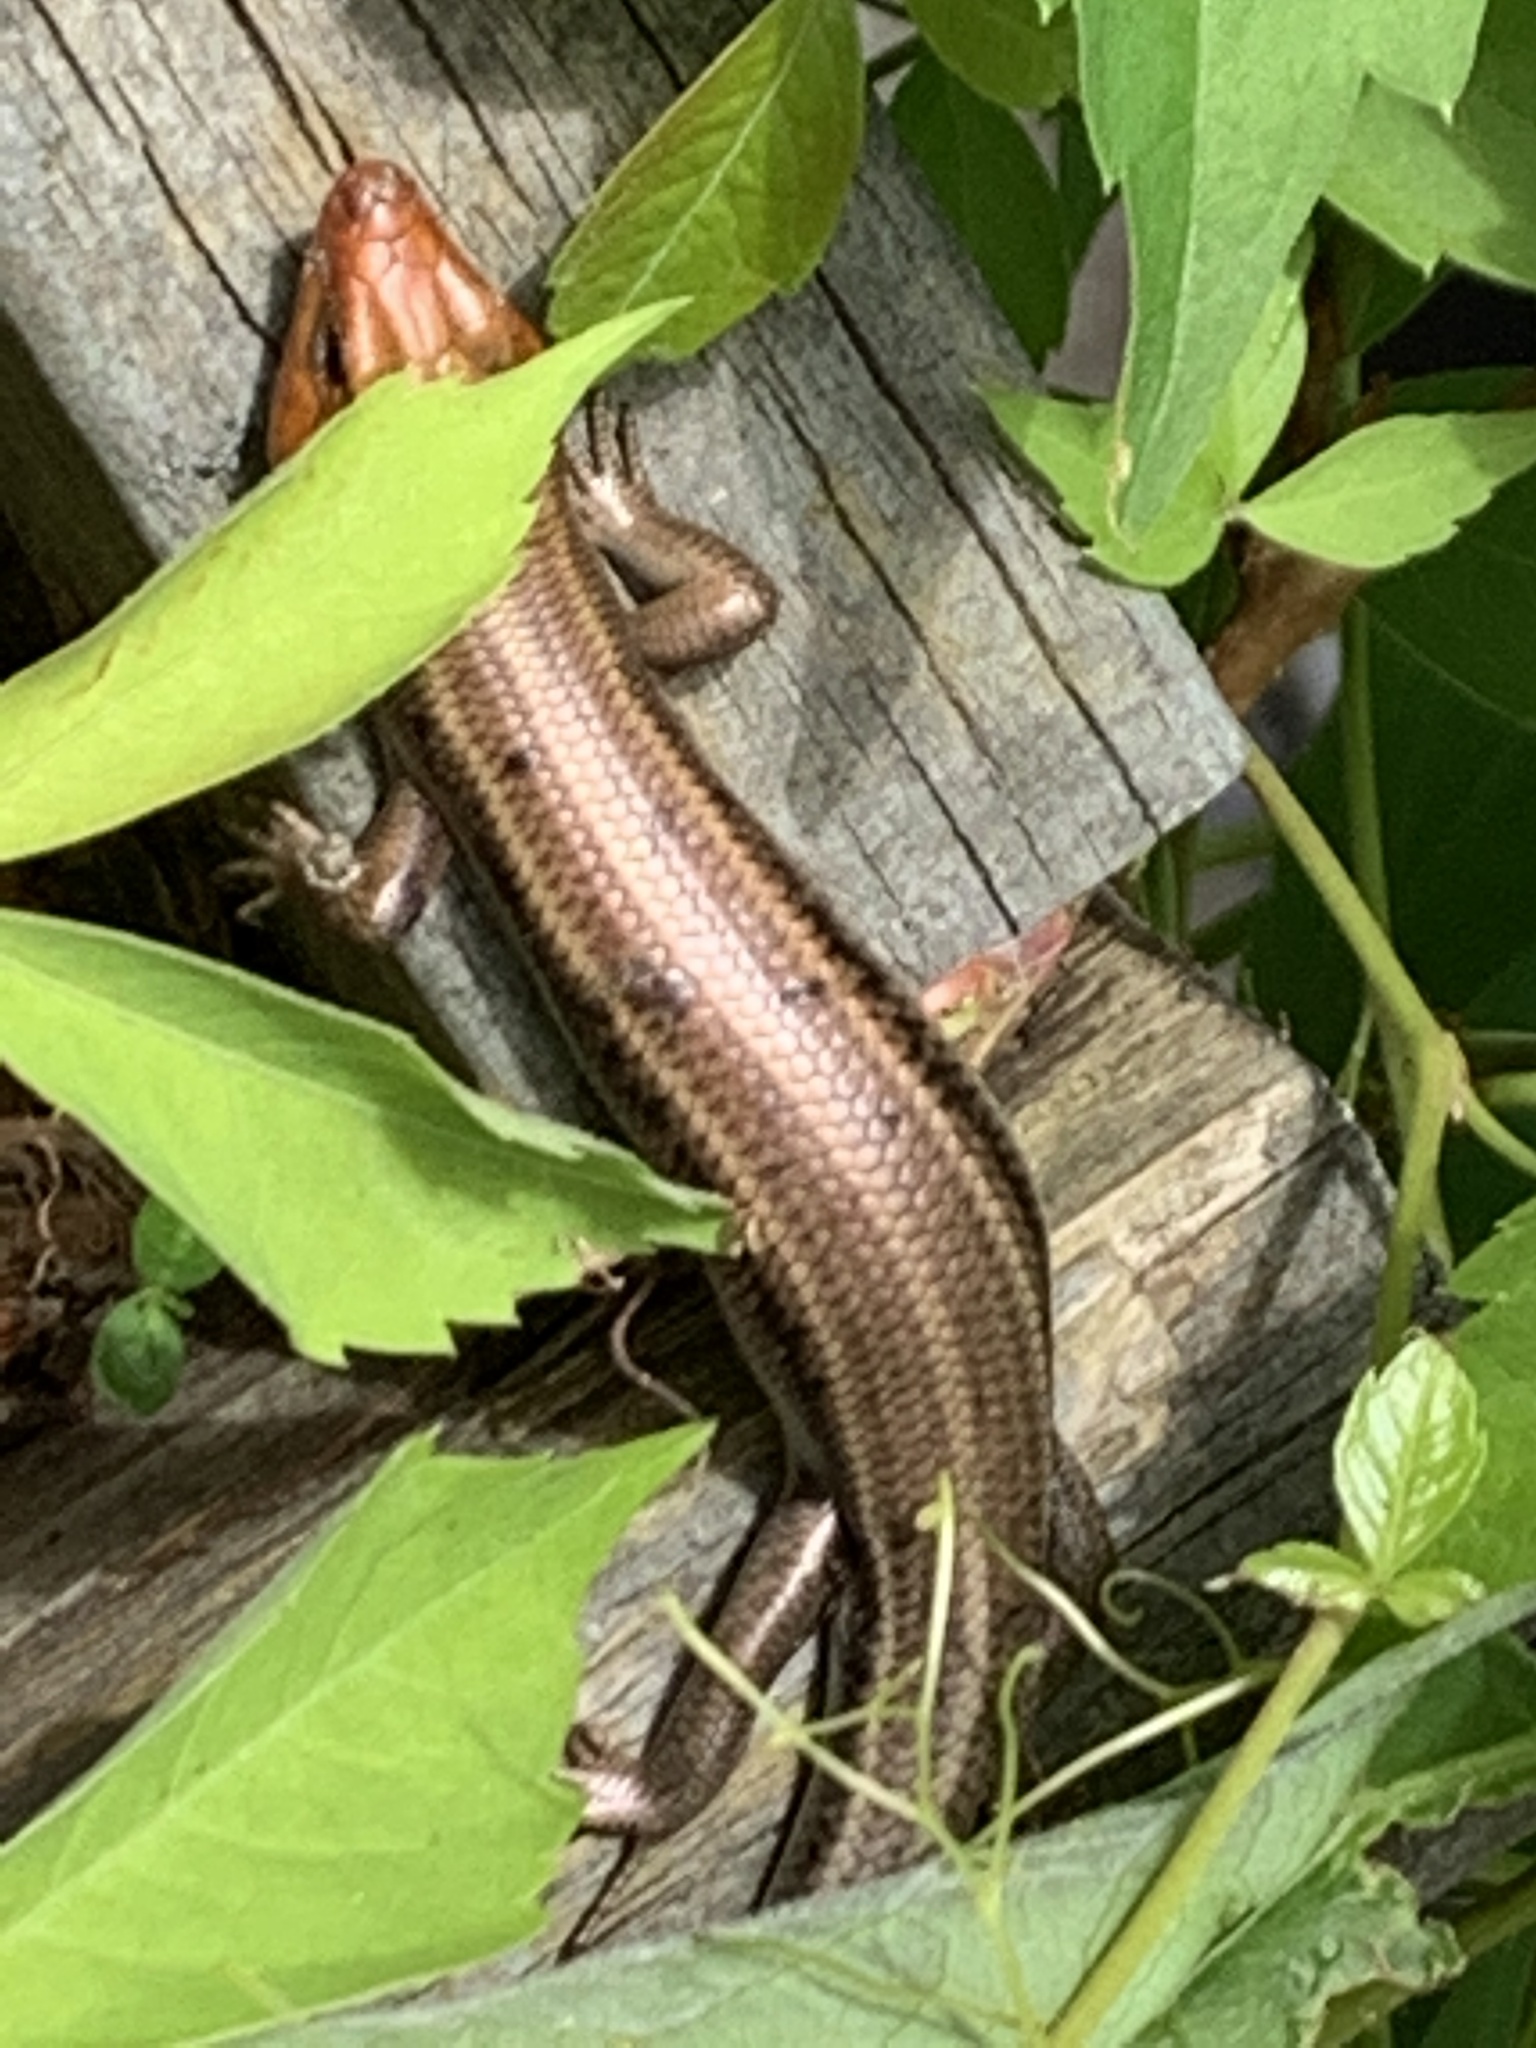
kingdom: Animalia
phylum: Chordata
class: Squamata
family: Scincidae
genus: Plestiodon
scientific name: Plestiodon fasciatus
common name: Five-lined skink
